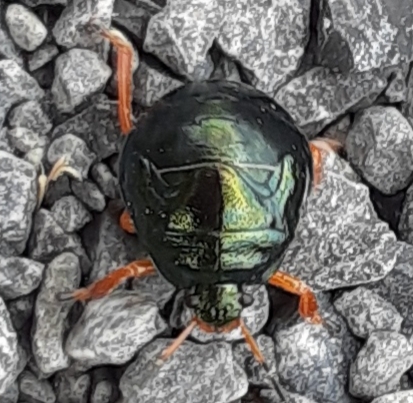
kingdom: Animalia
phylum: Arthropoda
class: Insecta
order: Hemiptera
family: Pentatomidae
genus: Stiretrus
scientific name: Stiretrus anchorago
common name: Anchor stink bug
